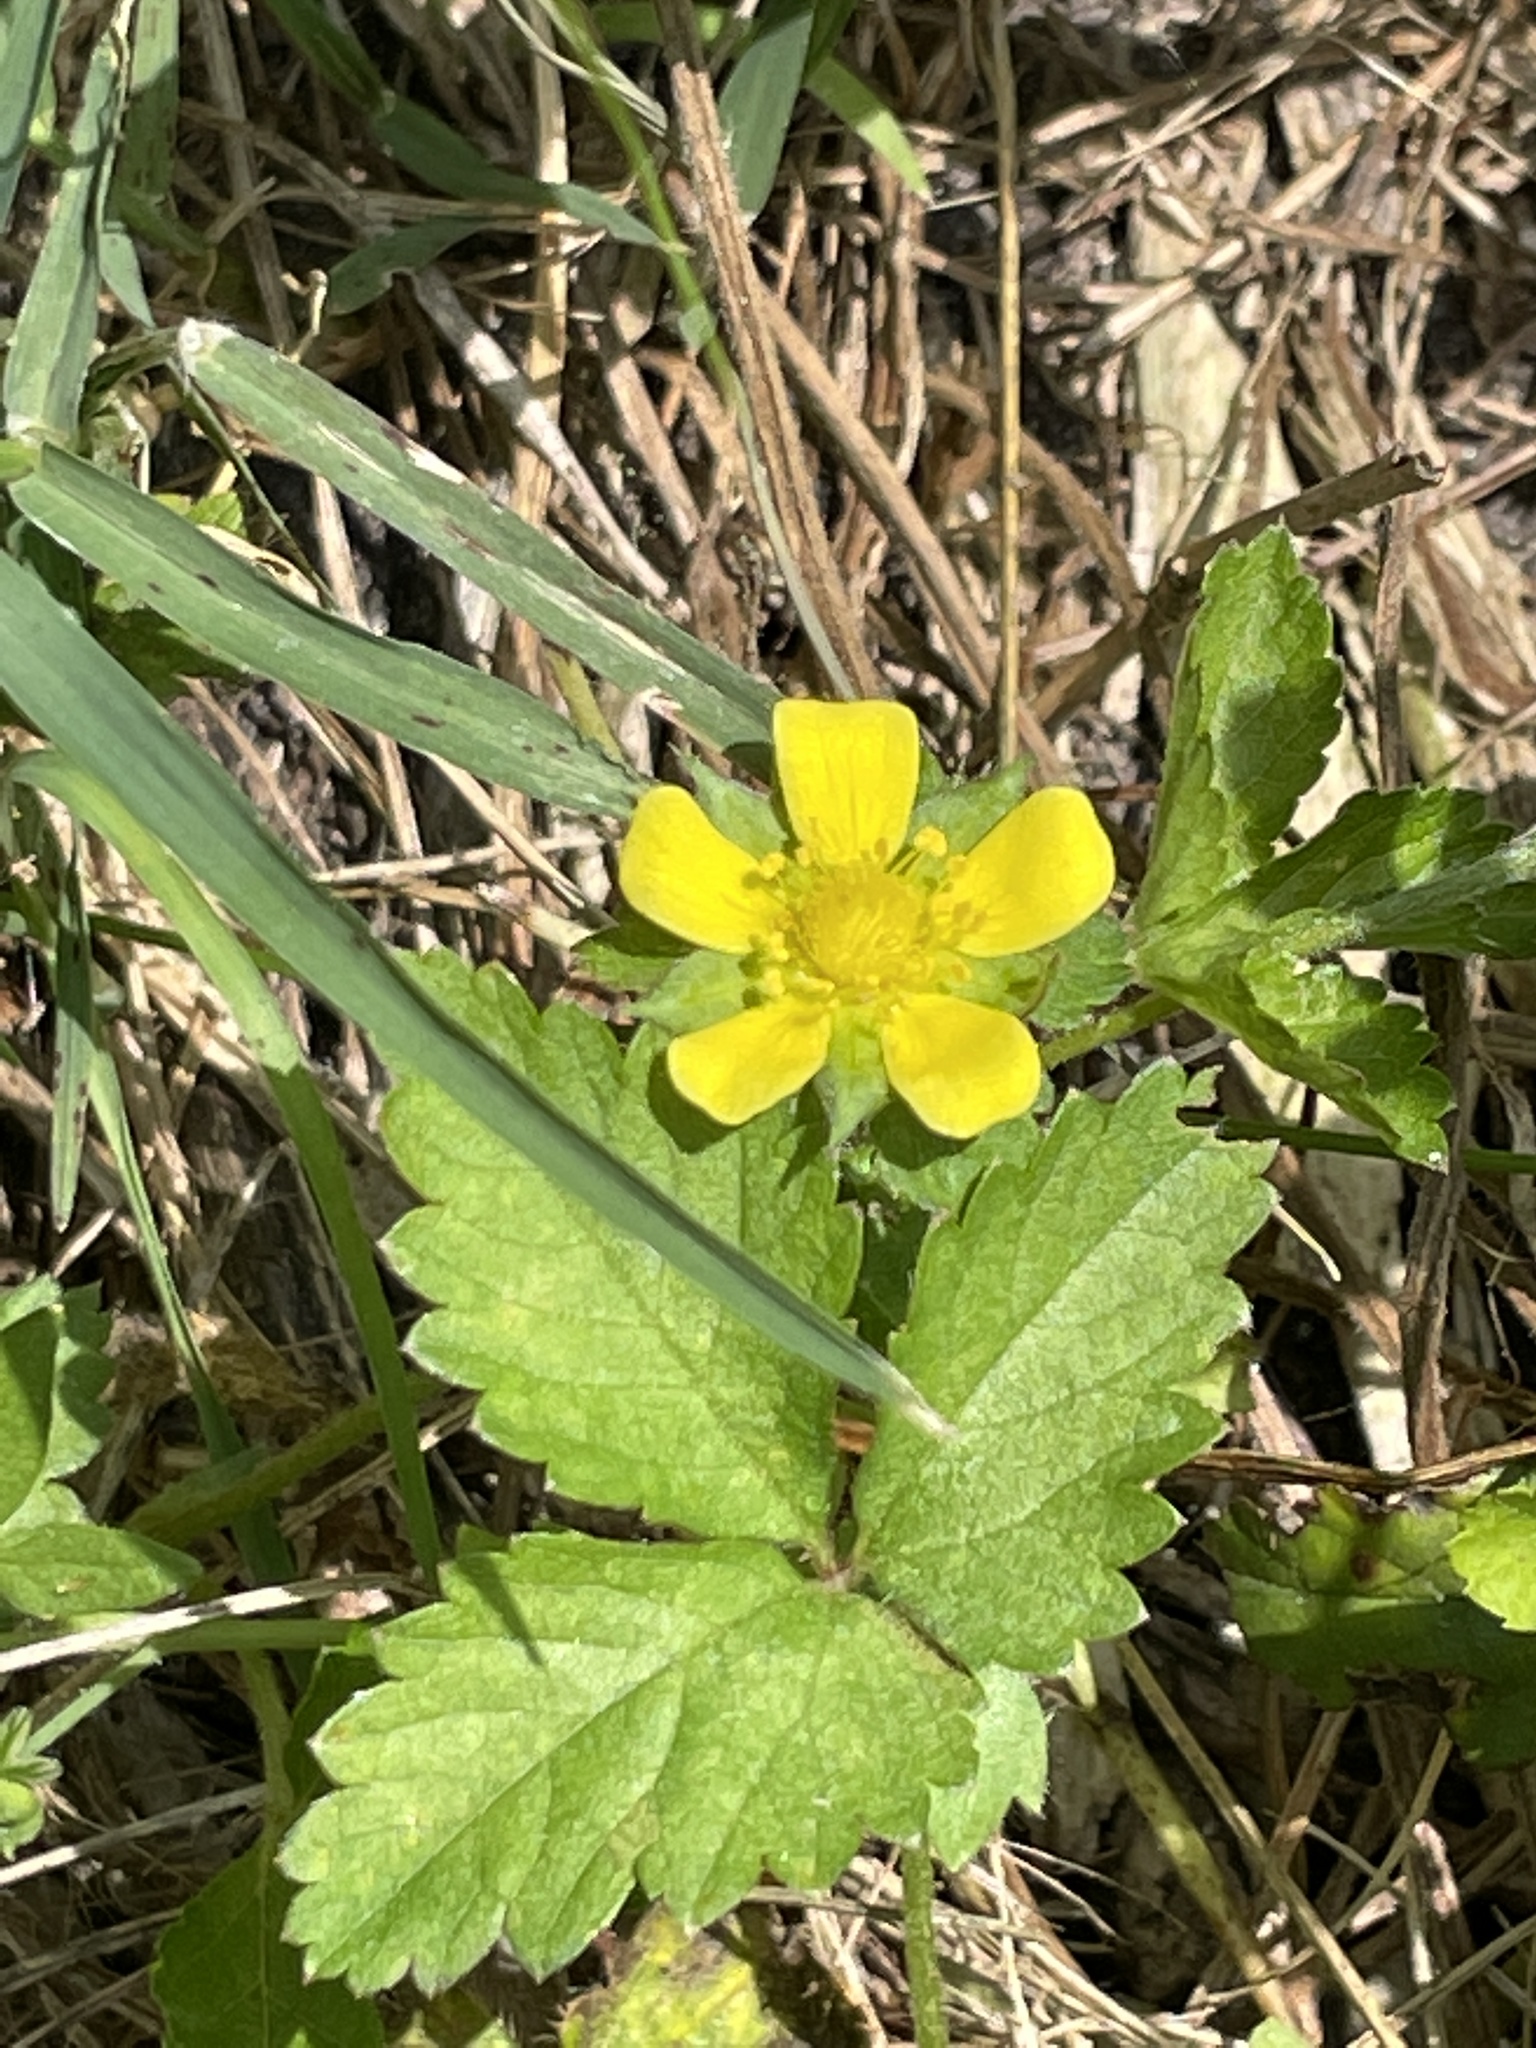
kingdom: Plantae
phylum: Tracheophyta
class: Magnoliopsida
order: Rosales
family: Rosaceae
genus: Potentilla
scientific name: Potentilla indica
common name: Yellow-flowered strawberry
